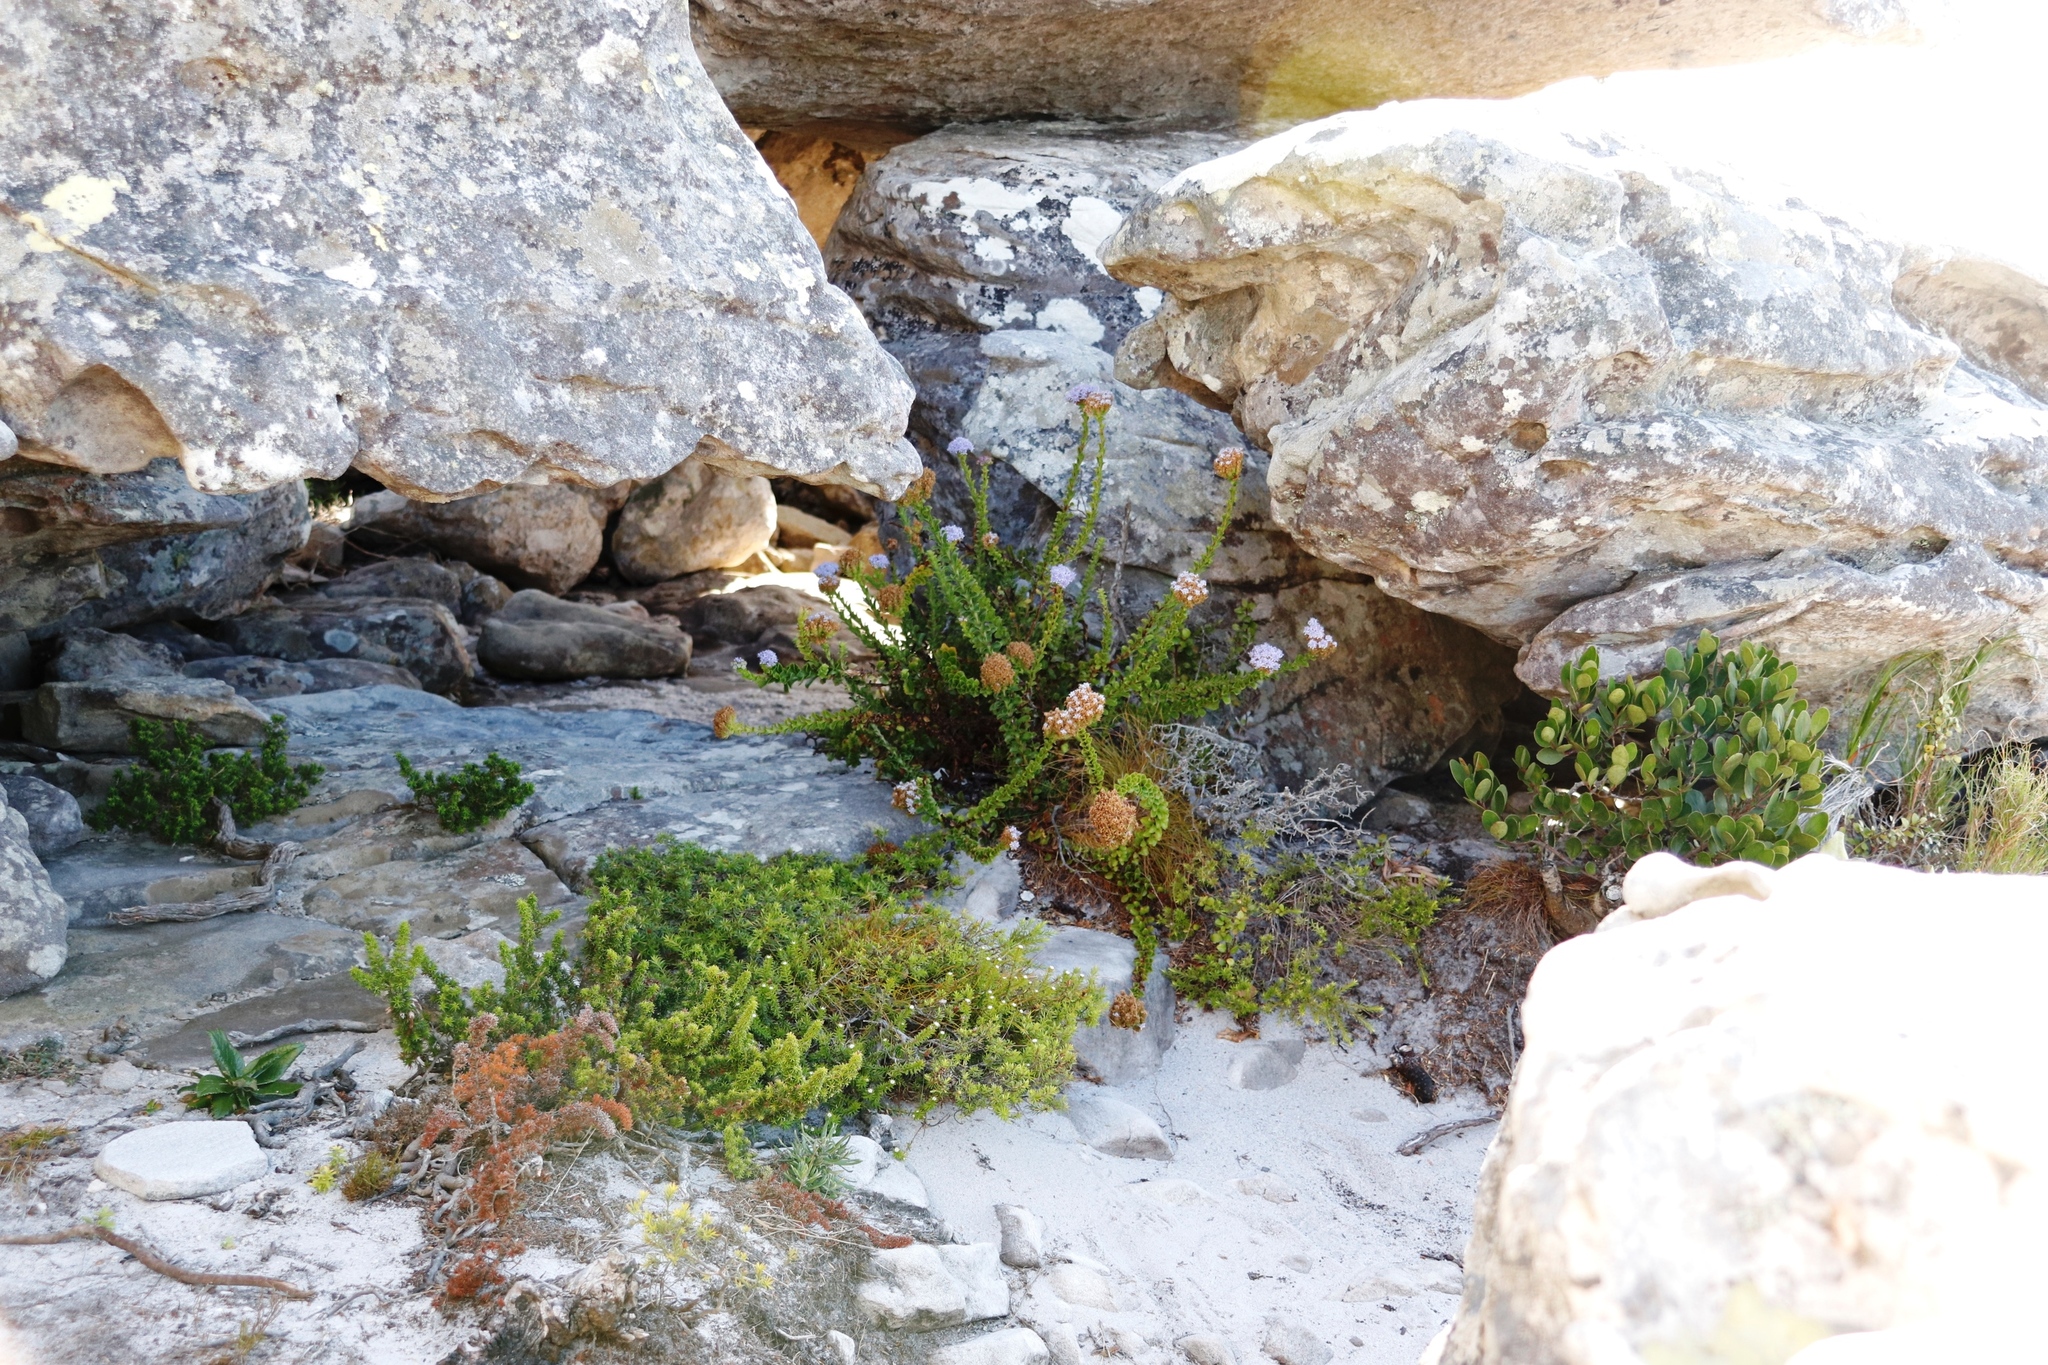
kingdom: Plantae
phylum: Tracheophyta
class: Magnoliopsida
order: Lamiales
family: Scrophulariaceae
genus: Pseudoselago
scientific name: Pseudoselago serrata
